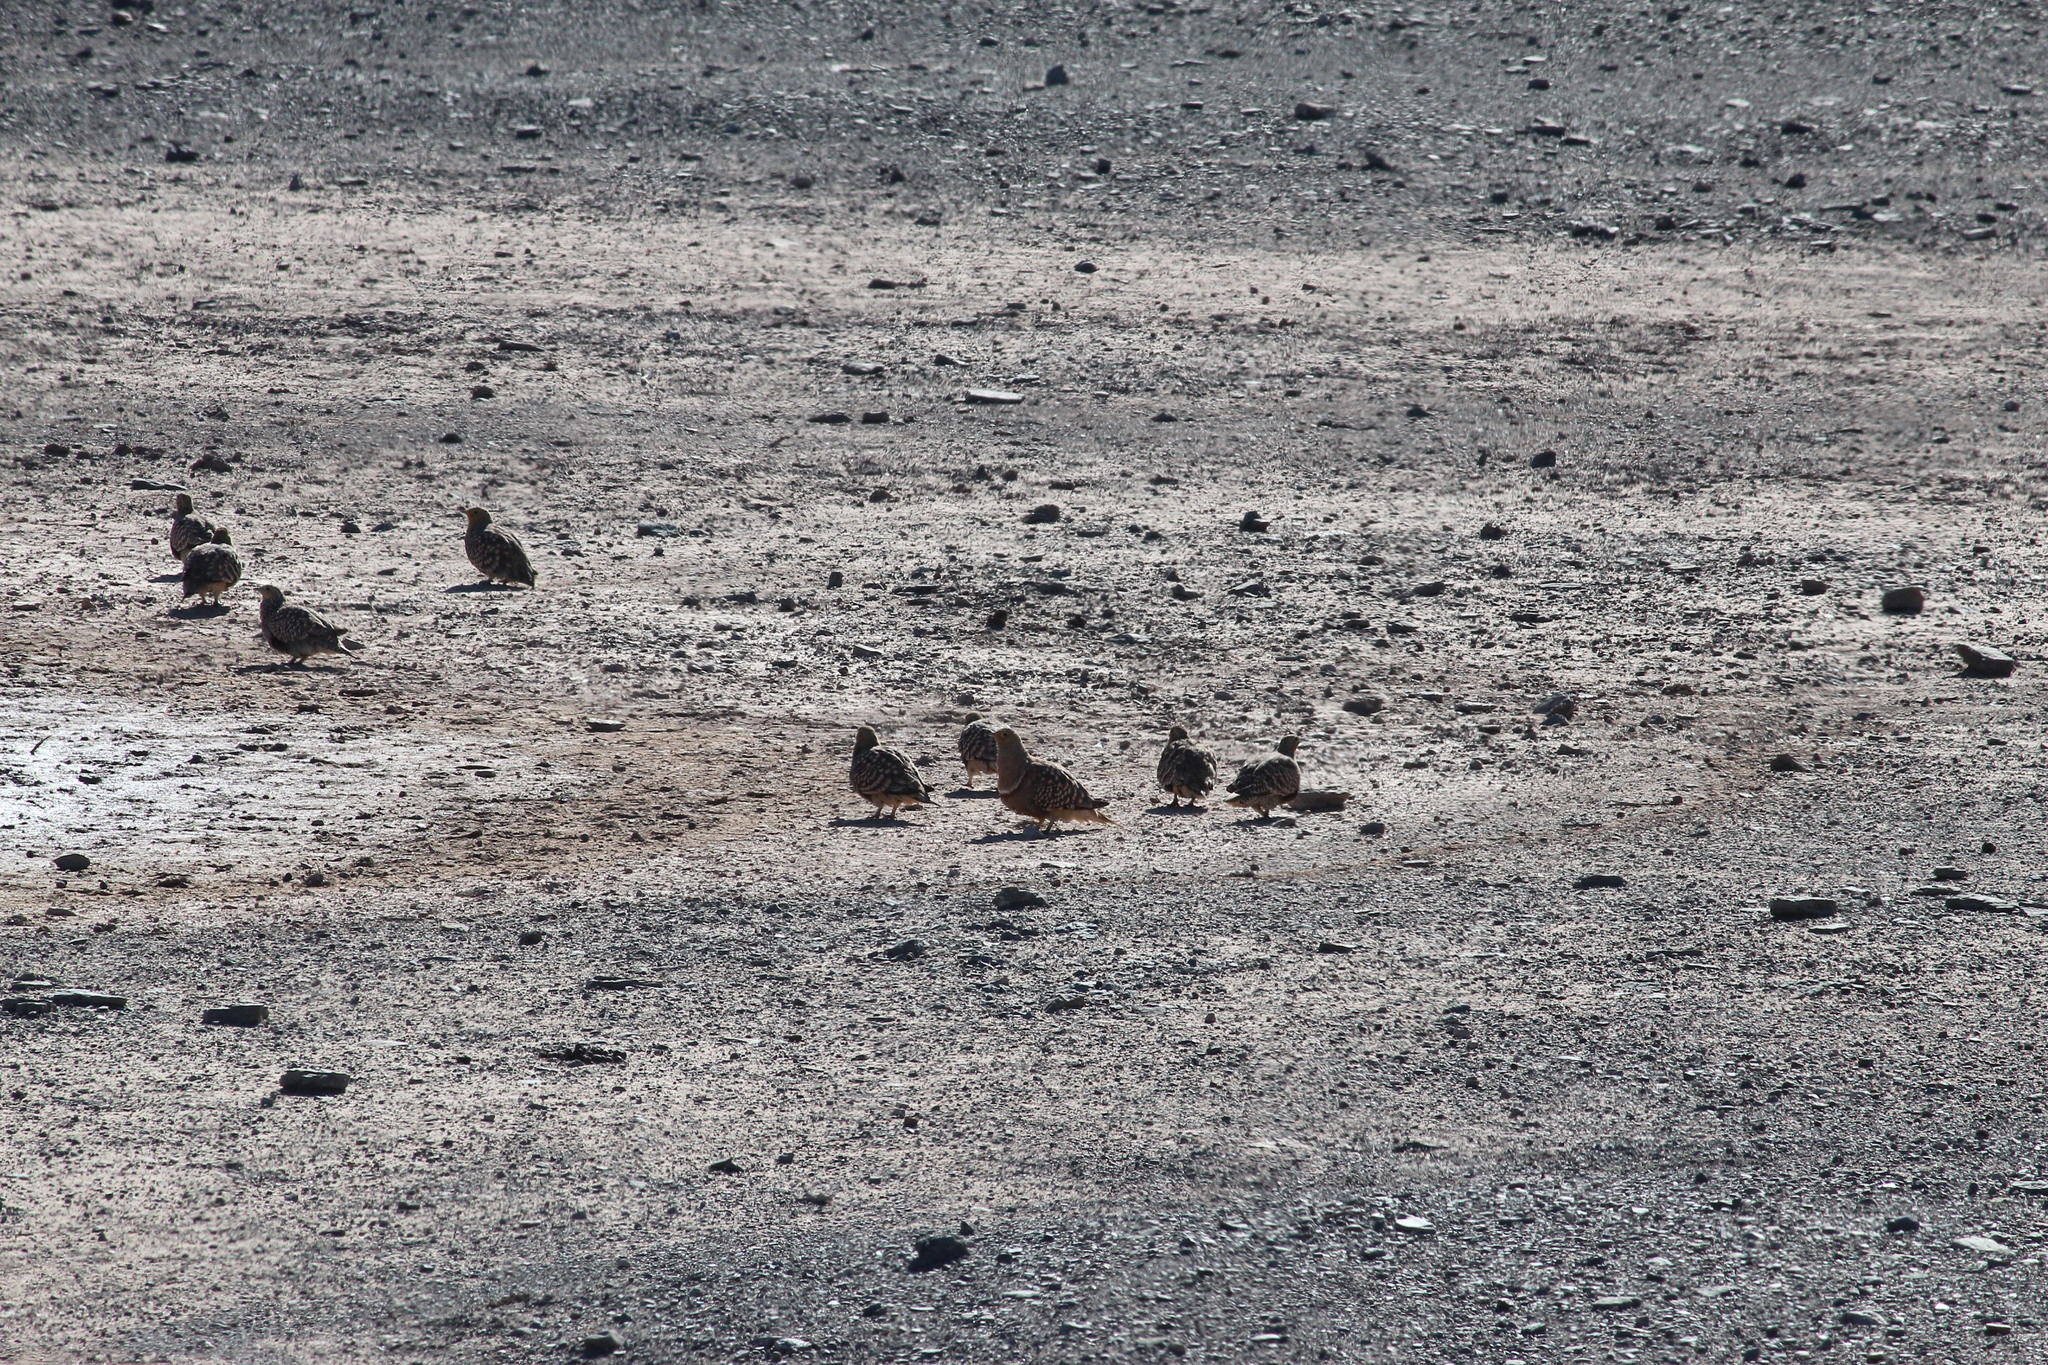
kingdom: Animalia
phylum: Chordata
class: Aves
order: Pteroclidiformes
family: Pteroclididae
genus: Pterocles
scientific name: Pterocles namaqua
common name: Namaqua sandgrouse
